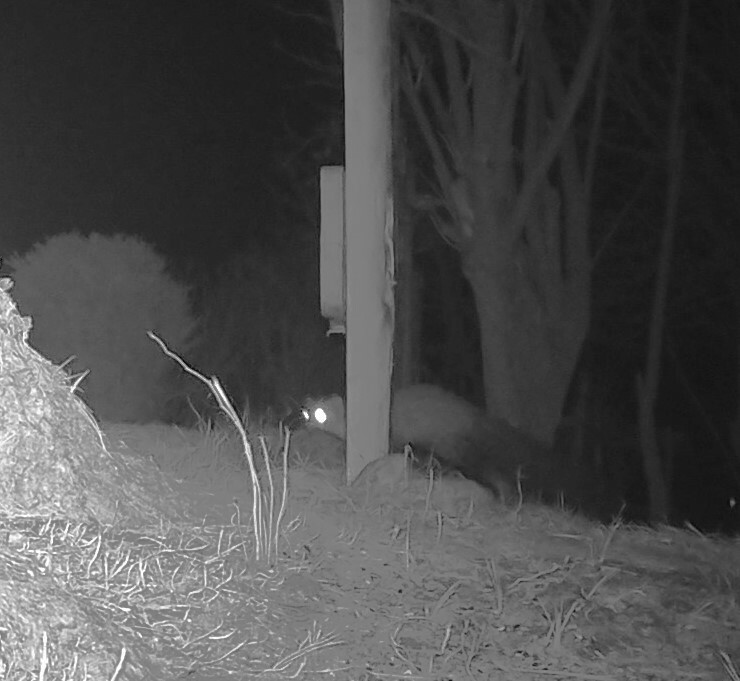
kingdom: Animalia
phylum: Chordata
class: Mammalia
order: Carnivora
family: Mustelidae
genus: Martes
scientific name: Martes foina
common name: Beech marten
